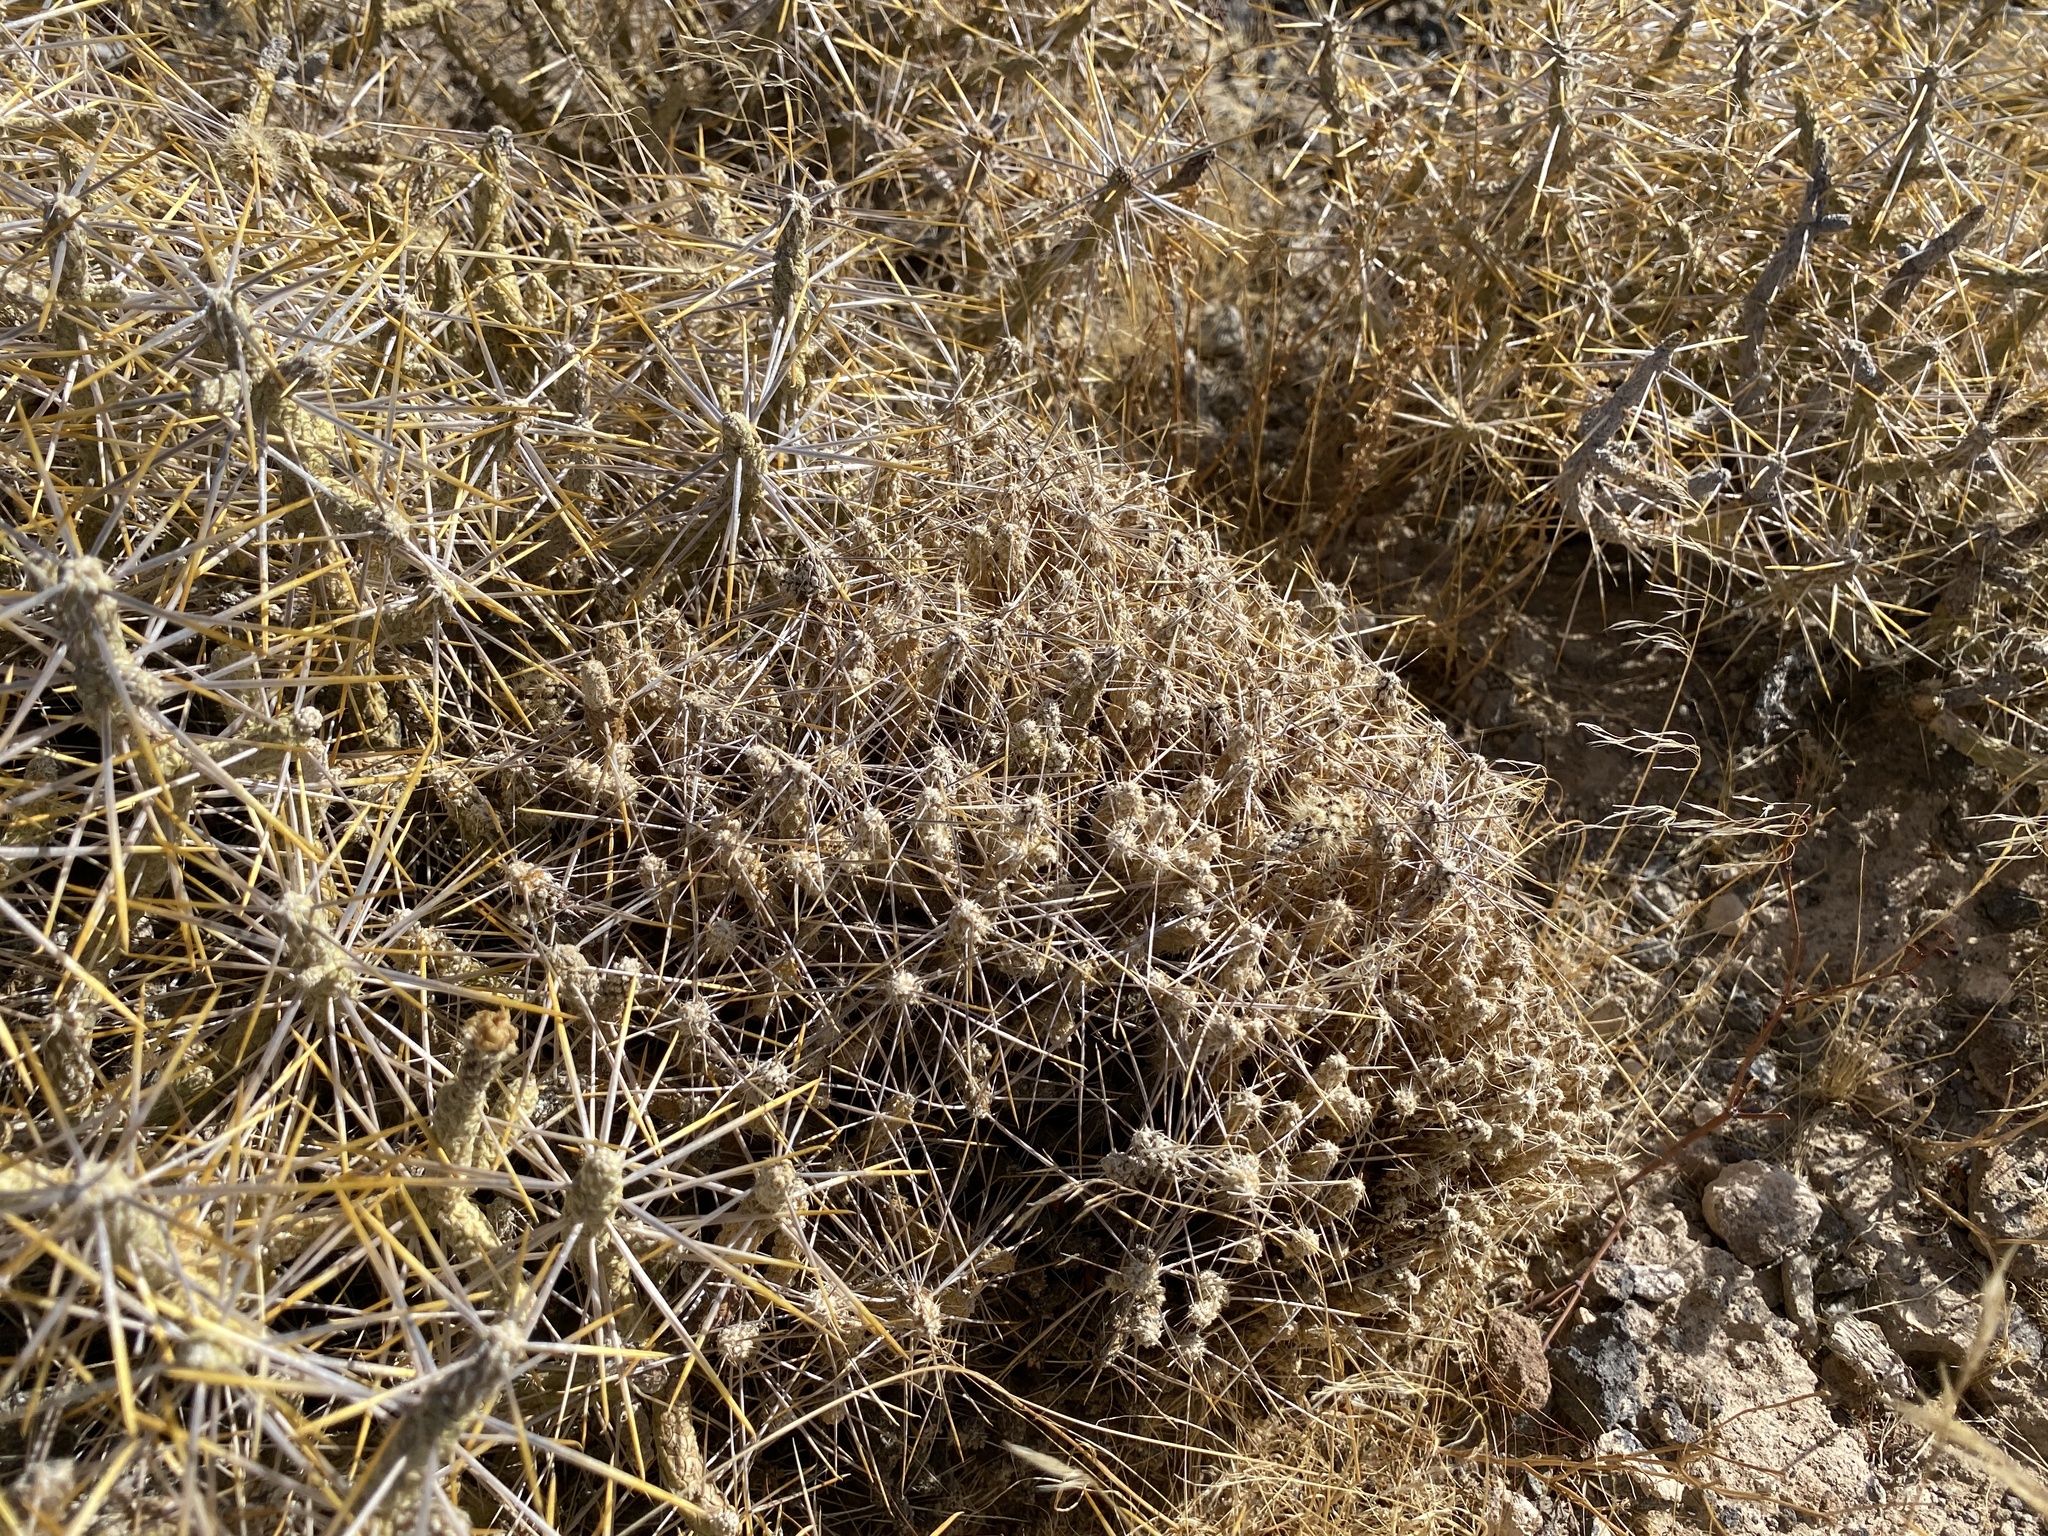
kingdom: Plantae
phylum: Tracheophyta
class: Magnoliopsida
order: Caryophyllales
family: Cactaceae
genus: Cylindropuntia
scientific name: Cylindropuntia ramosissima
